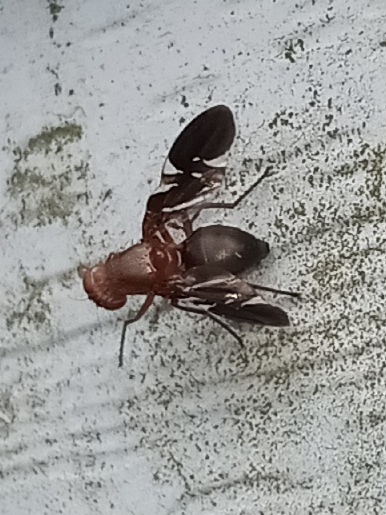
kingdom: Animalia
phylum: Arthropoda
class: Insecta
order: Diptera
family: Ulidiidae
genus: Delphinia
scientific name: Delphinia picta
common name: Common picture-winged fly
